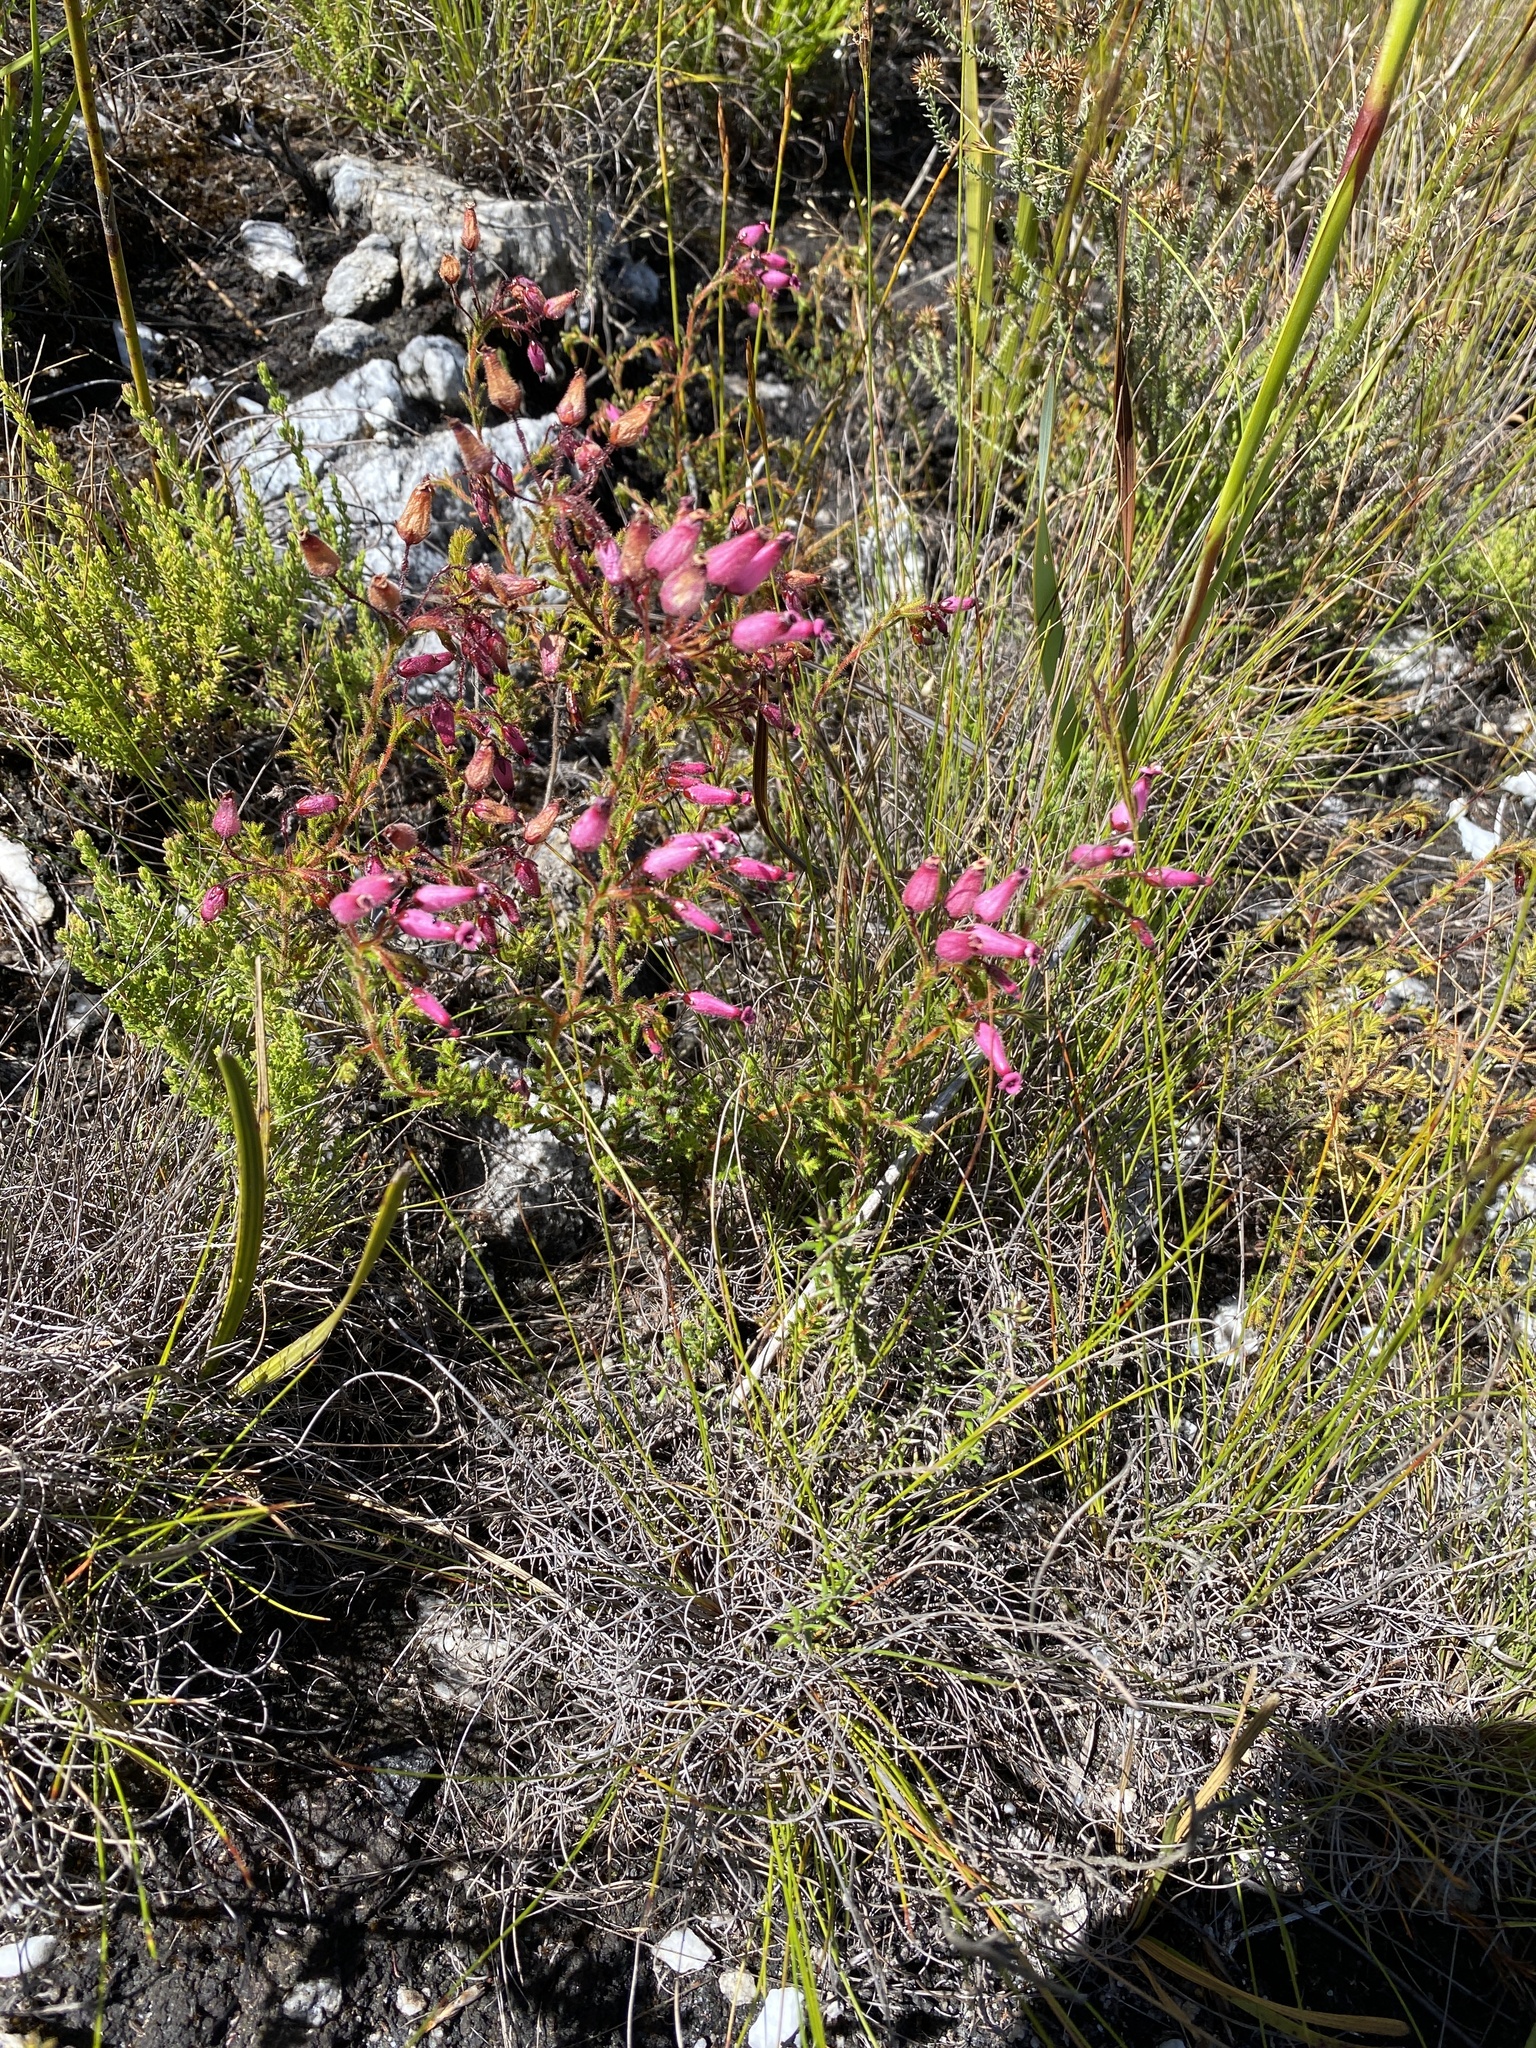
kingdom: Plantae
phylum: Tracheophyta
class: Magnoliopsida
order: Ericales
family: Ericaceae
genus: Erica
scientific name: Erica glutinosa
